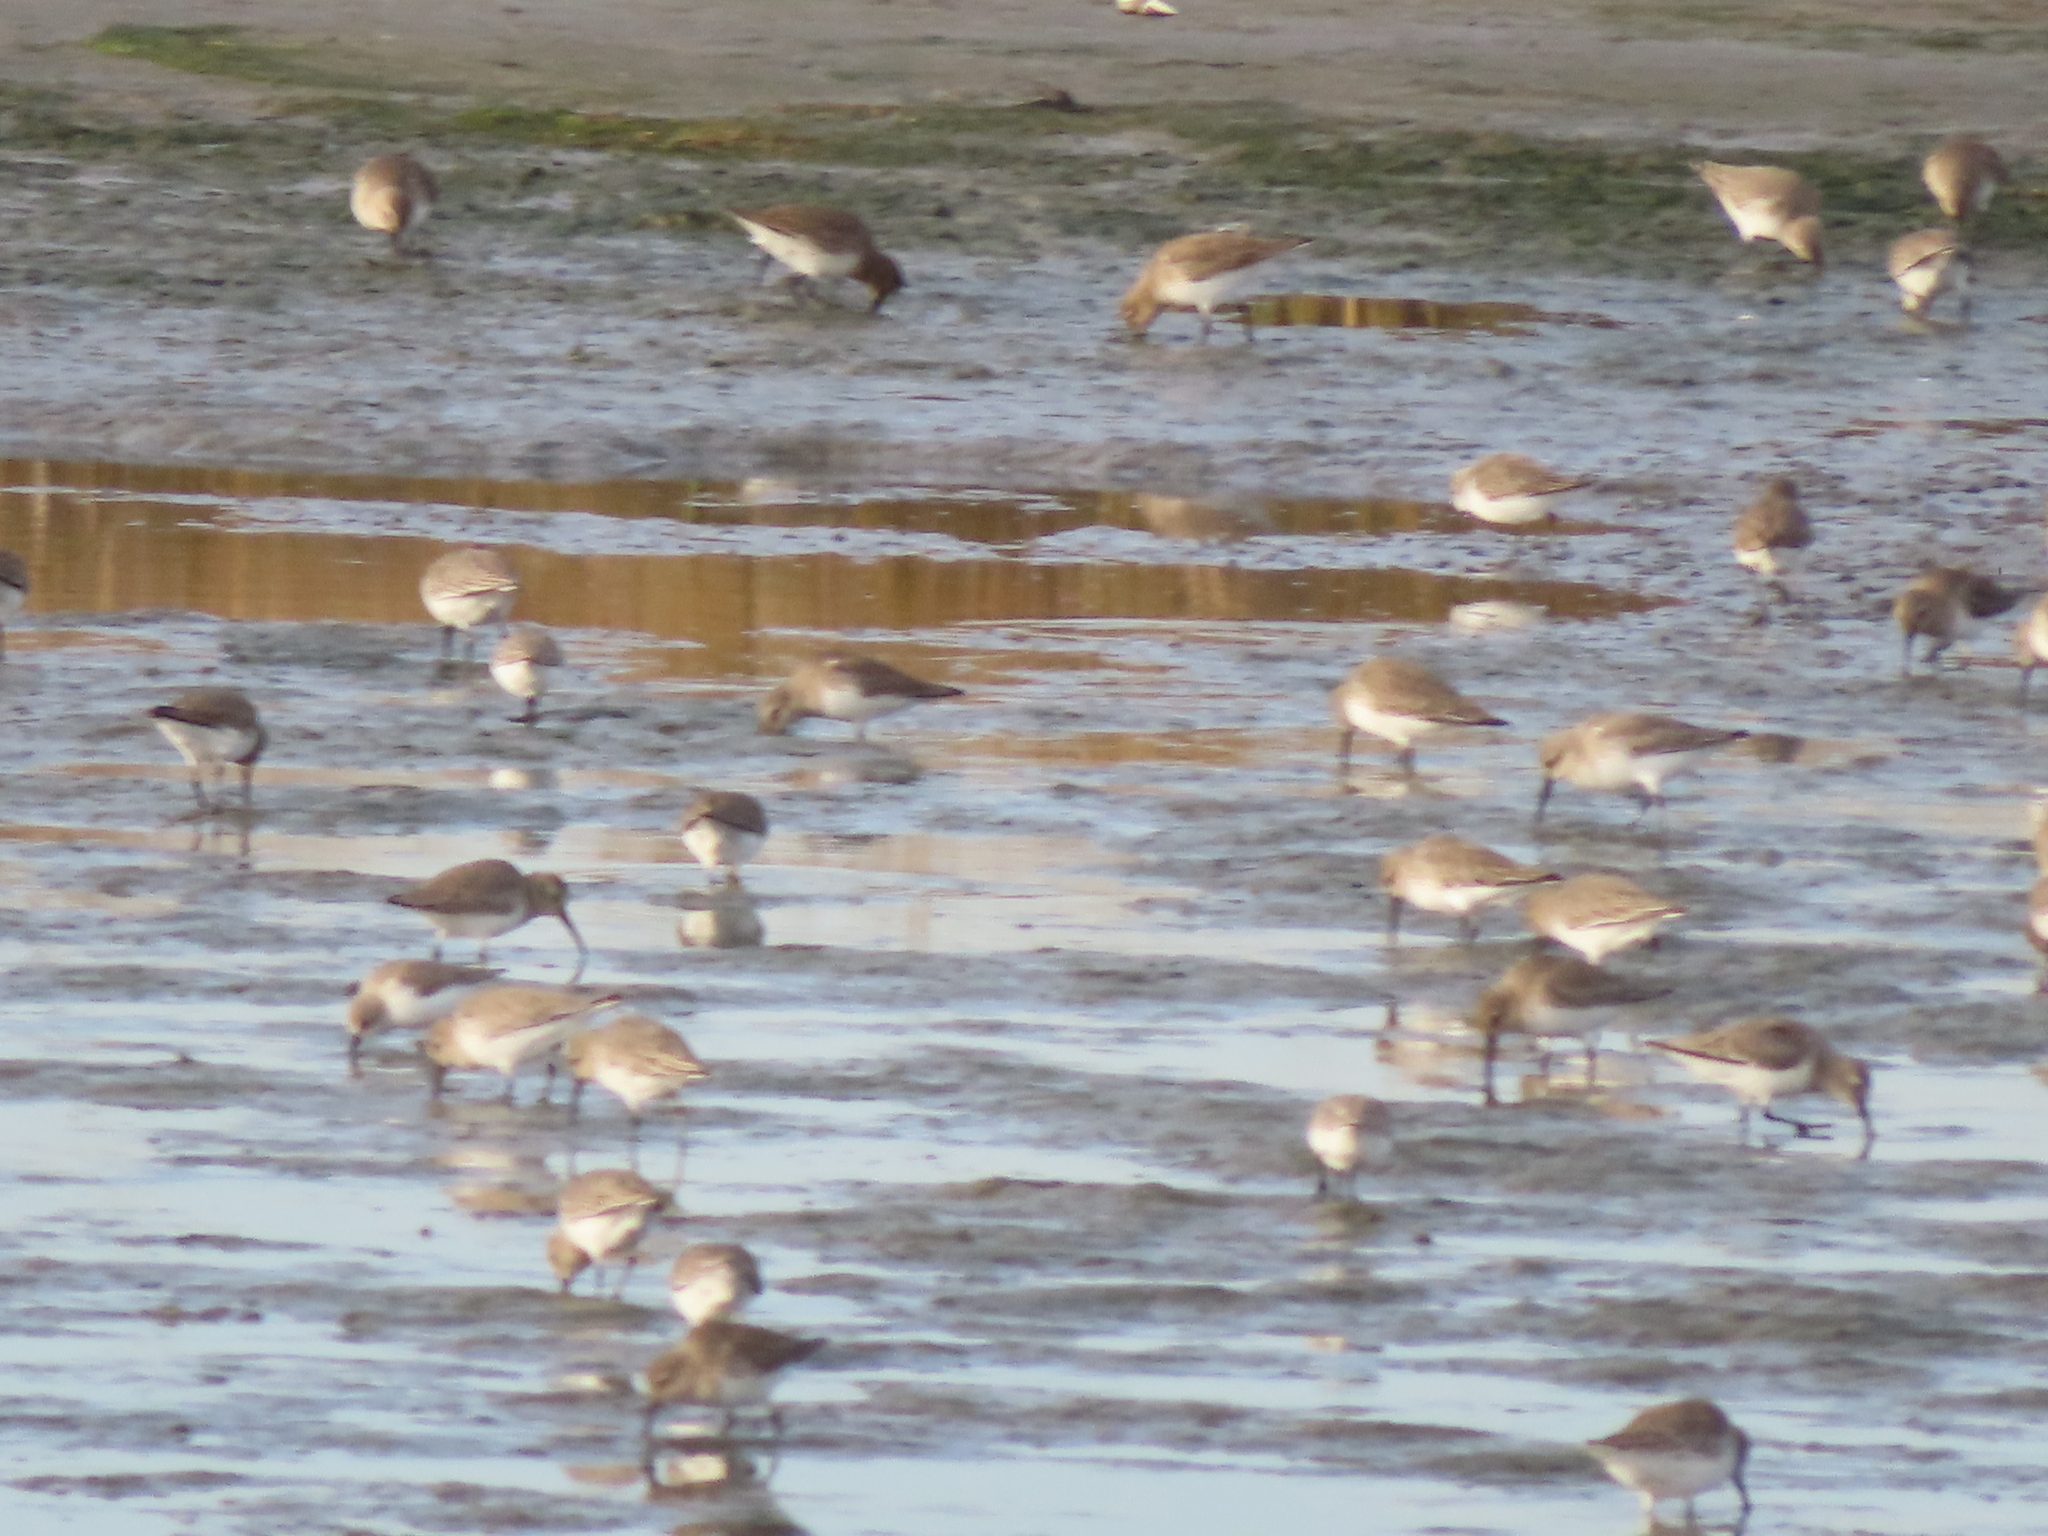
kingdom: Animalia
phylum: Chordata
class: Aves
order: Charadriiformes
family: Scolopacidae
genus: Calidris
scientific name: Calidris alpina
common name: Dunlin
